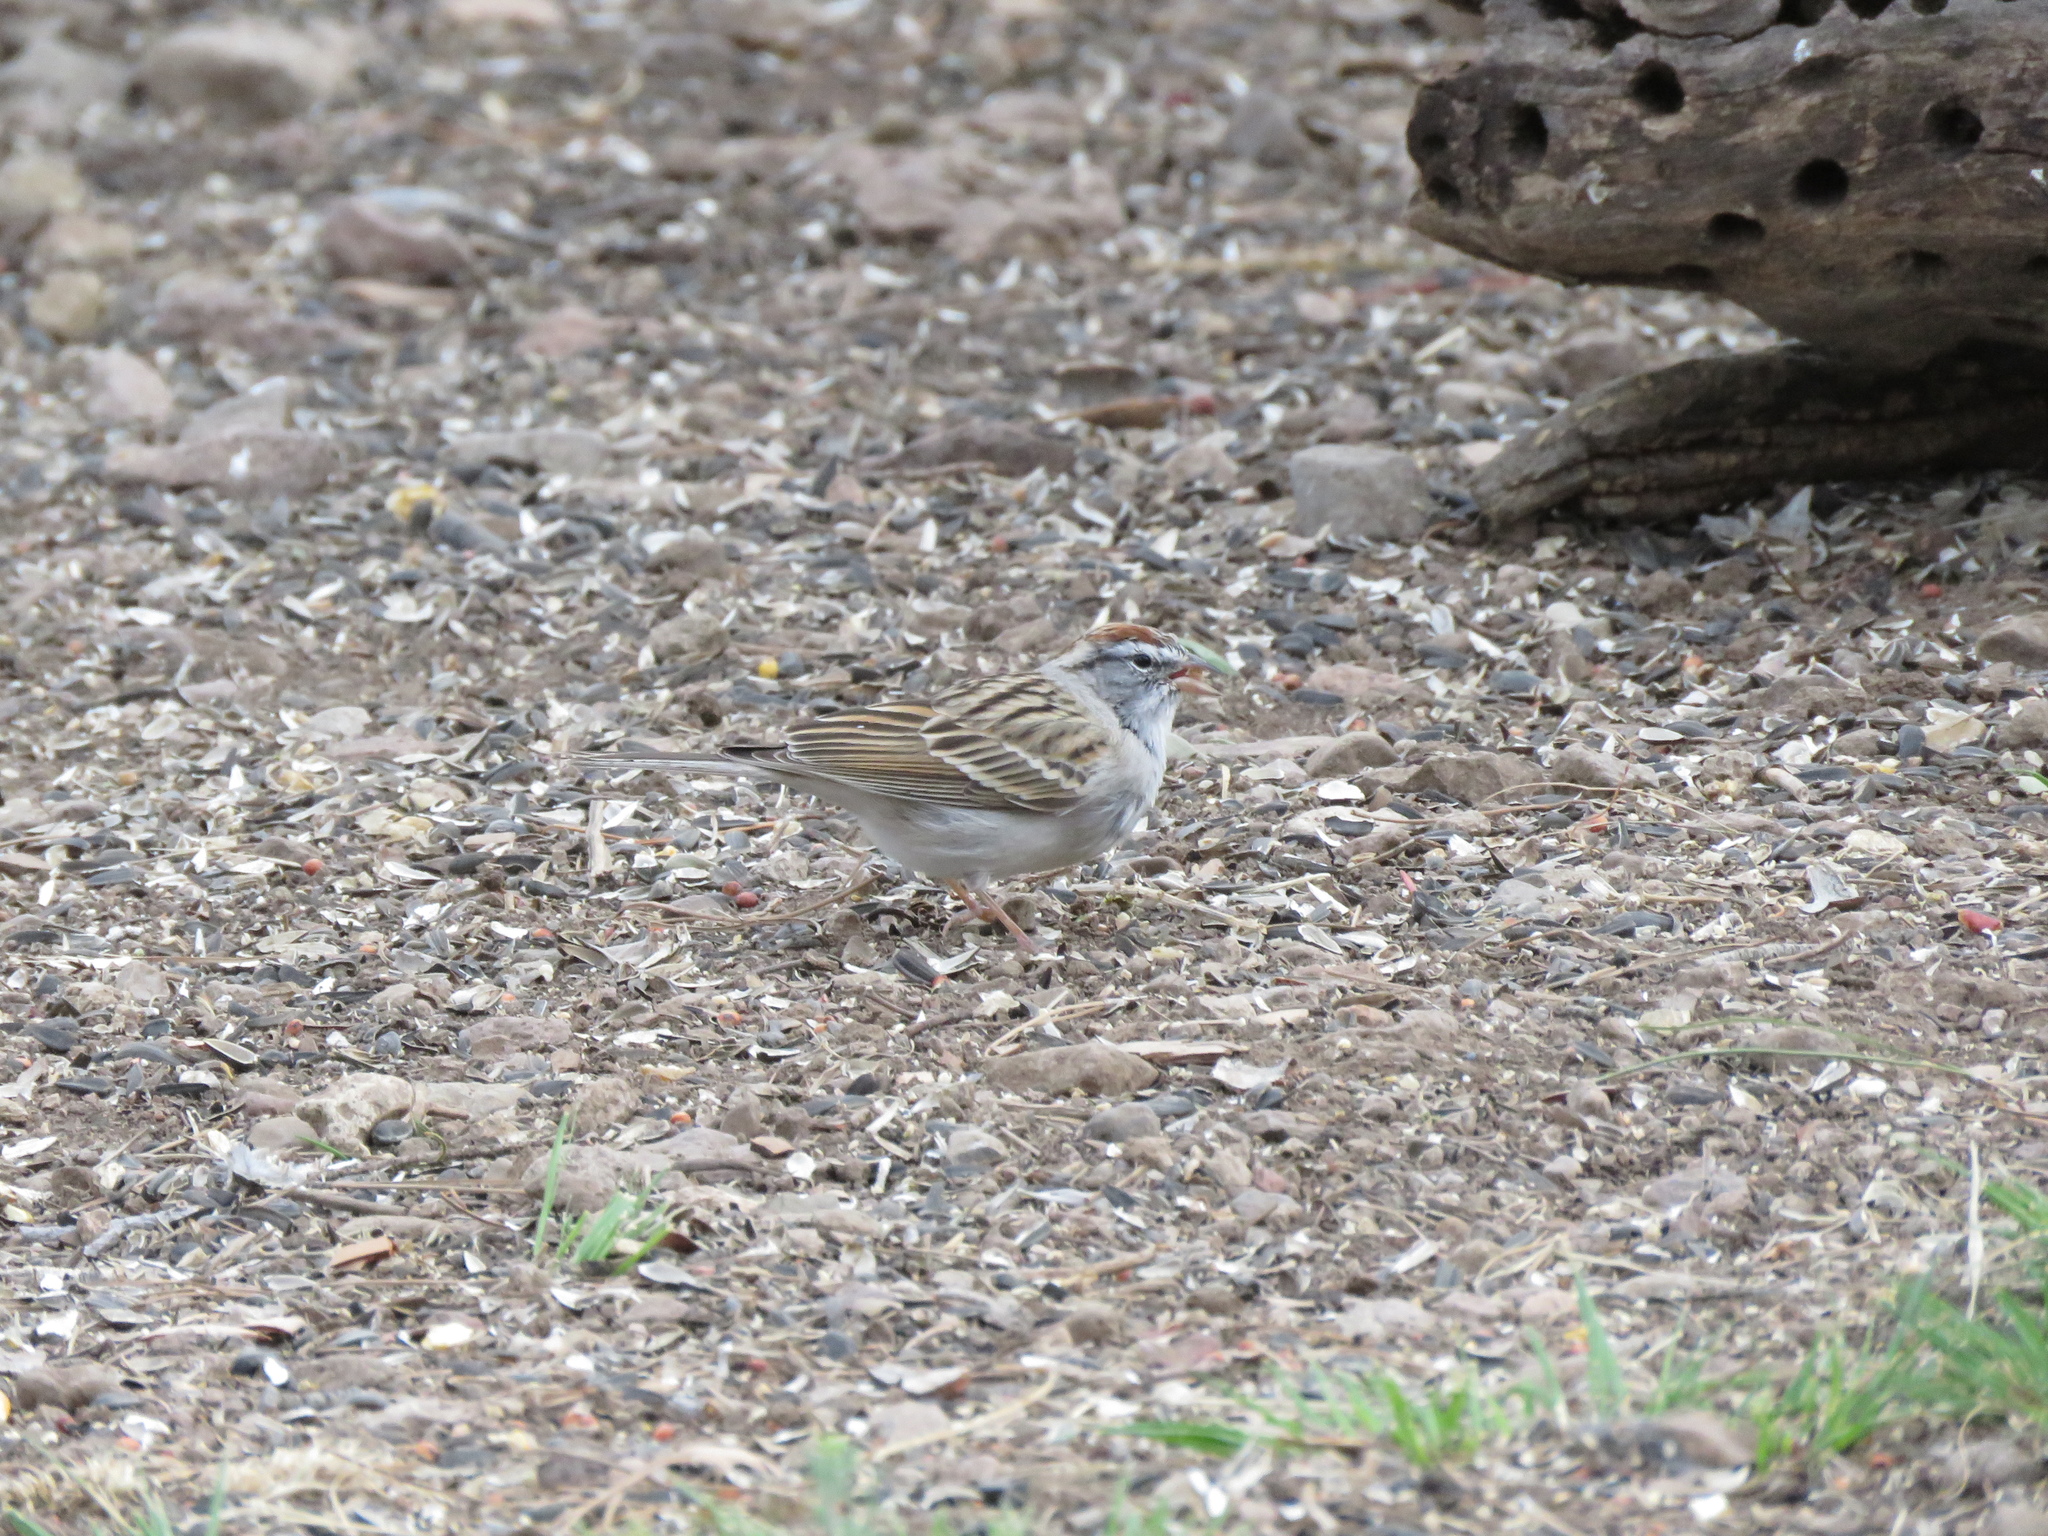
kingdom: Animalia
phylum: Chordata
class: Aves
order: Passeriformes
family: Passerellidae
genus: Spizella
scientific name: Spizella passerina
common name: Chipping sparrow
